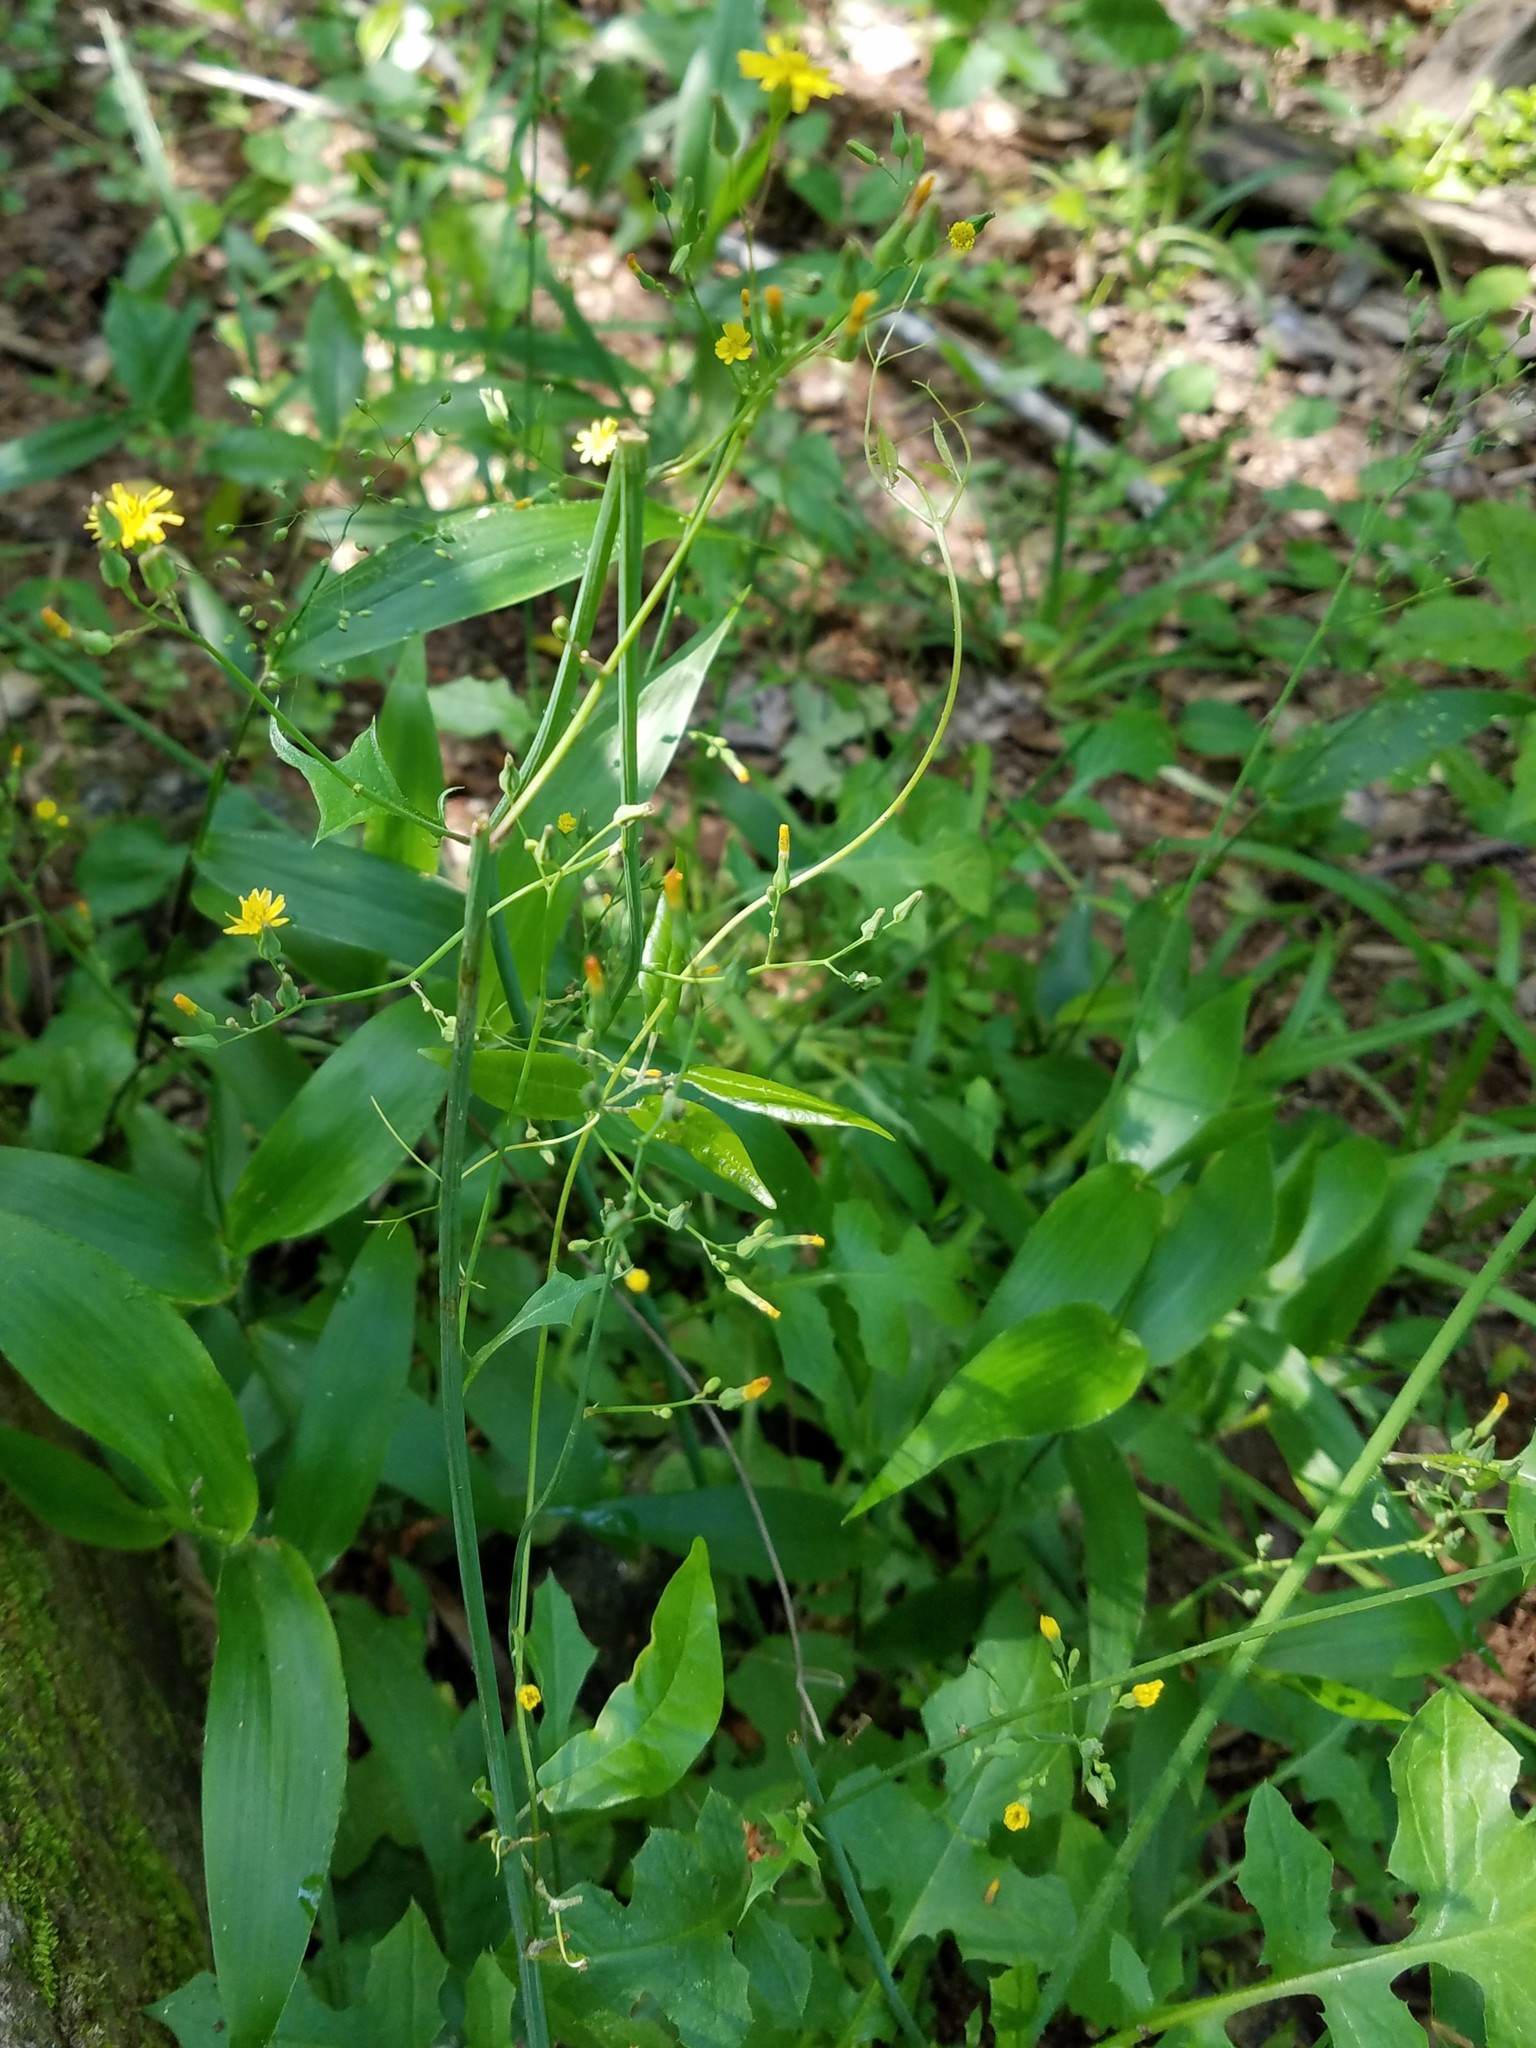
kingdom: Plantae
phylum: Tracheophyta
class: Magnoliopsida
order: Asterales
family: Asteraceae
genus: Youngia
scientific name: Youngia japonica
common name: Oriental false hawksbeard
